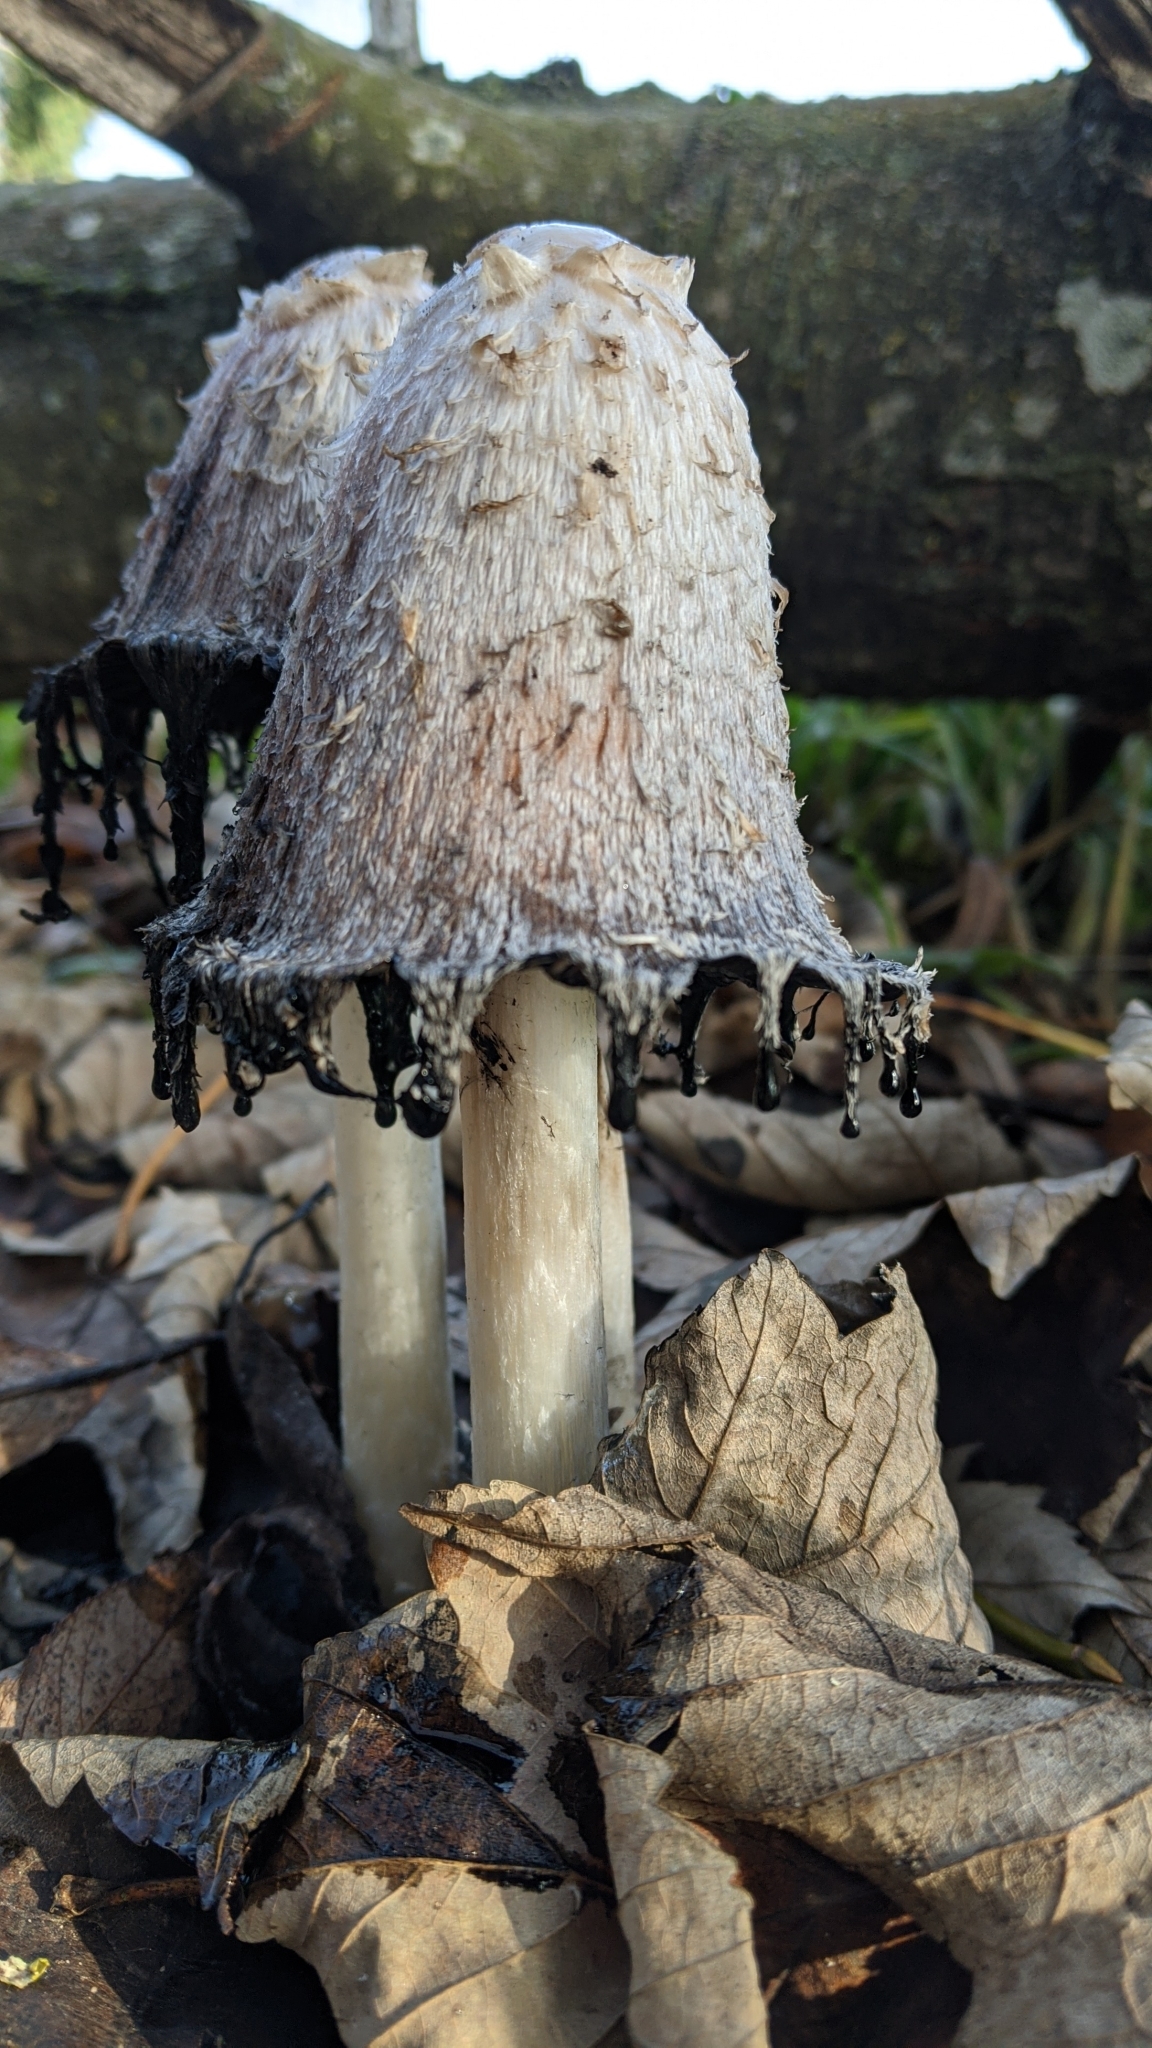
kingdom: Fungi
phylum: Basidiomycota
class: Agaricomycetes
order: Agaricales
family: Agaricaceae
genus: Coprinus
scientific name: Coprinus comatus
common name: Lawyer's wig
